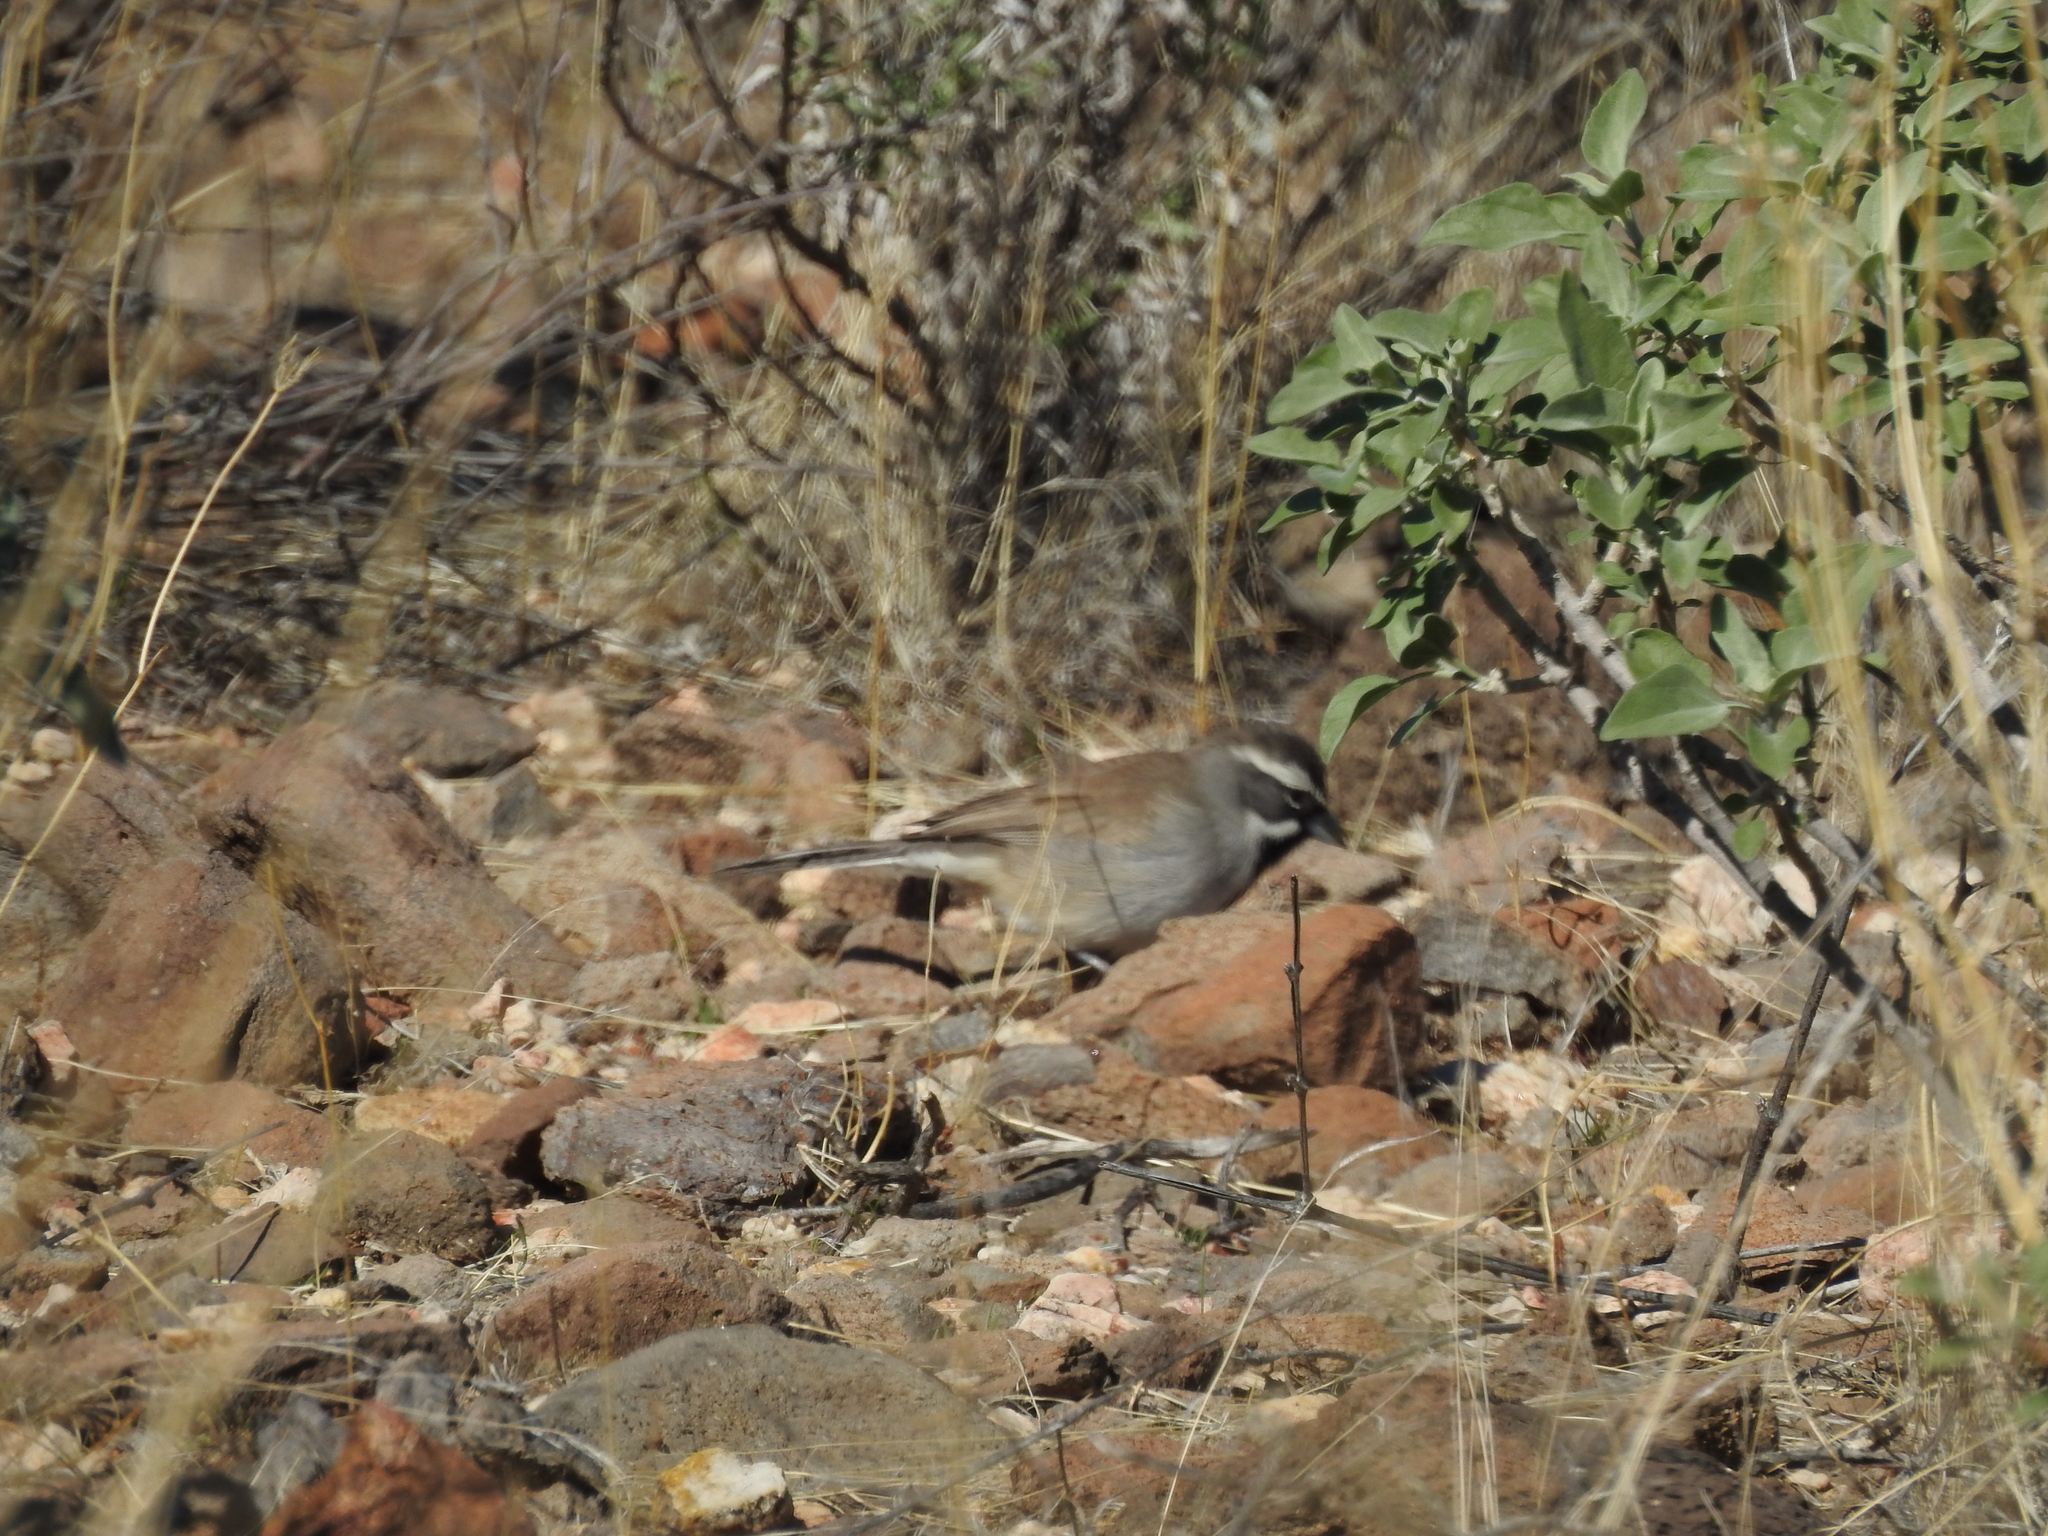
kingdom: Animalia
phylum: Chordata
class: Aves
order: Passeriformes
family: Passerellidae
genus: Amphispiza
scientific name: Amphispiza bilineata
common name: Black-throated sparrow
